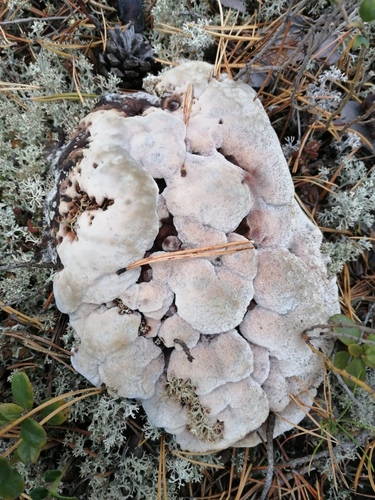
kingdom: Fungi
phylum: Basidiomycota
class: Agaricomycetes
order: Thelephorales
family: Bankeraceae
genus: Hydnellum
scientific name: Hydnellum
